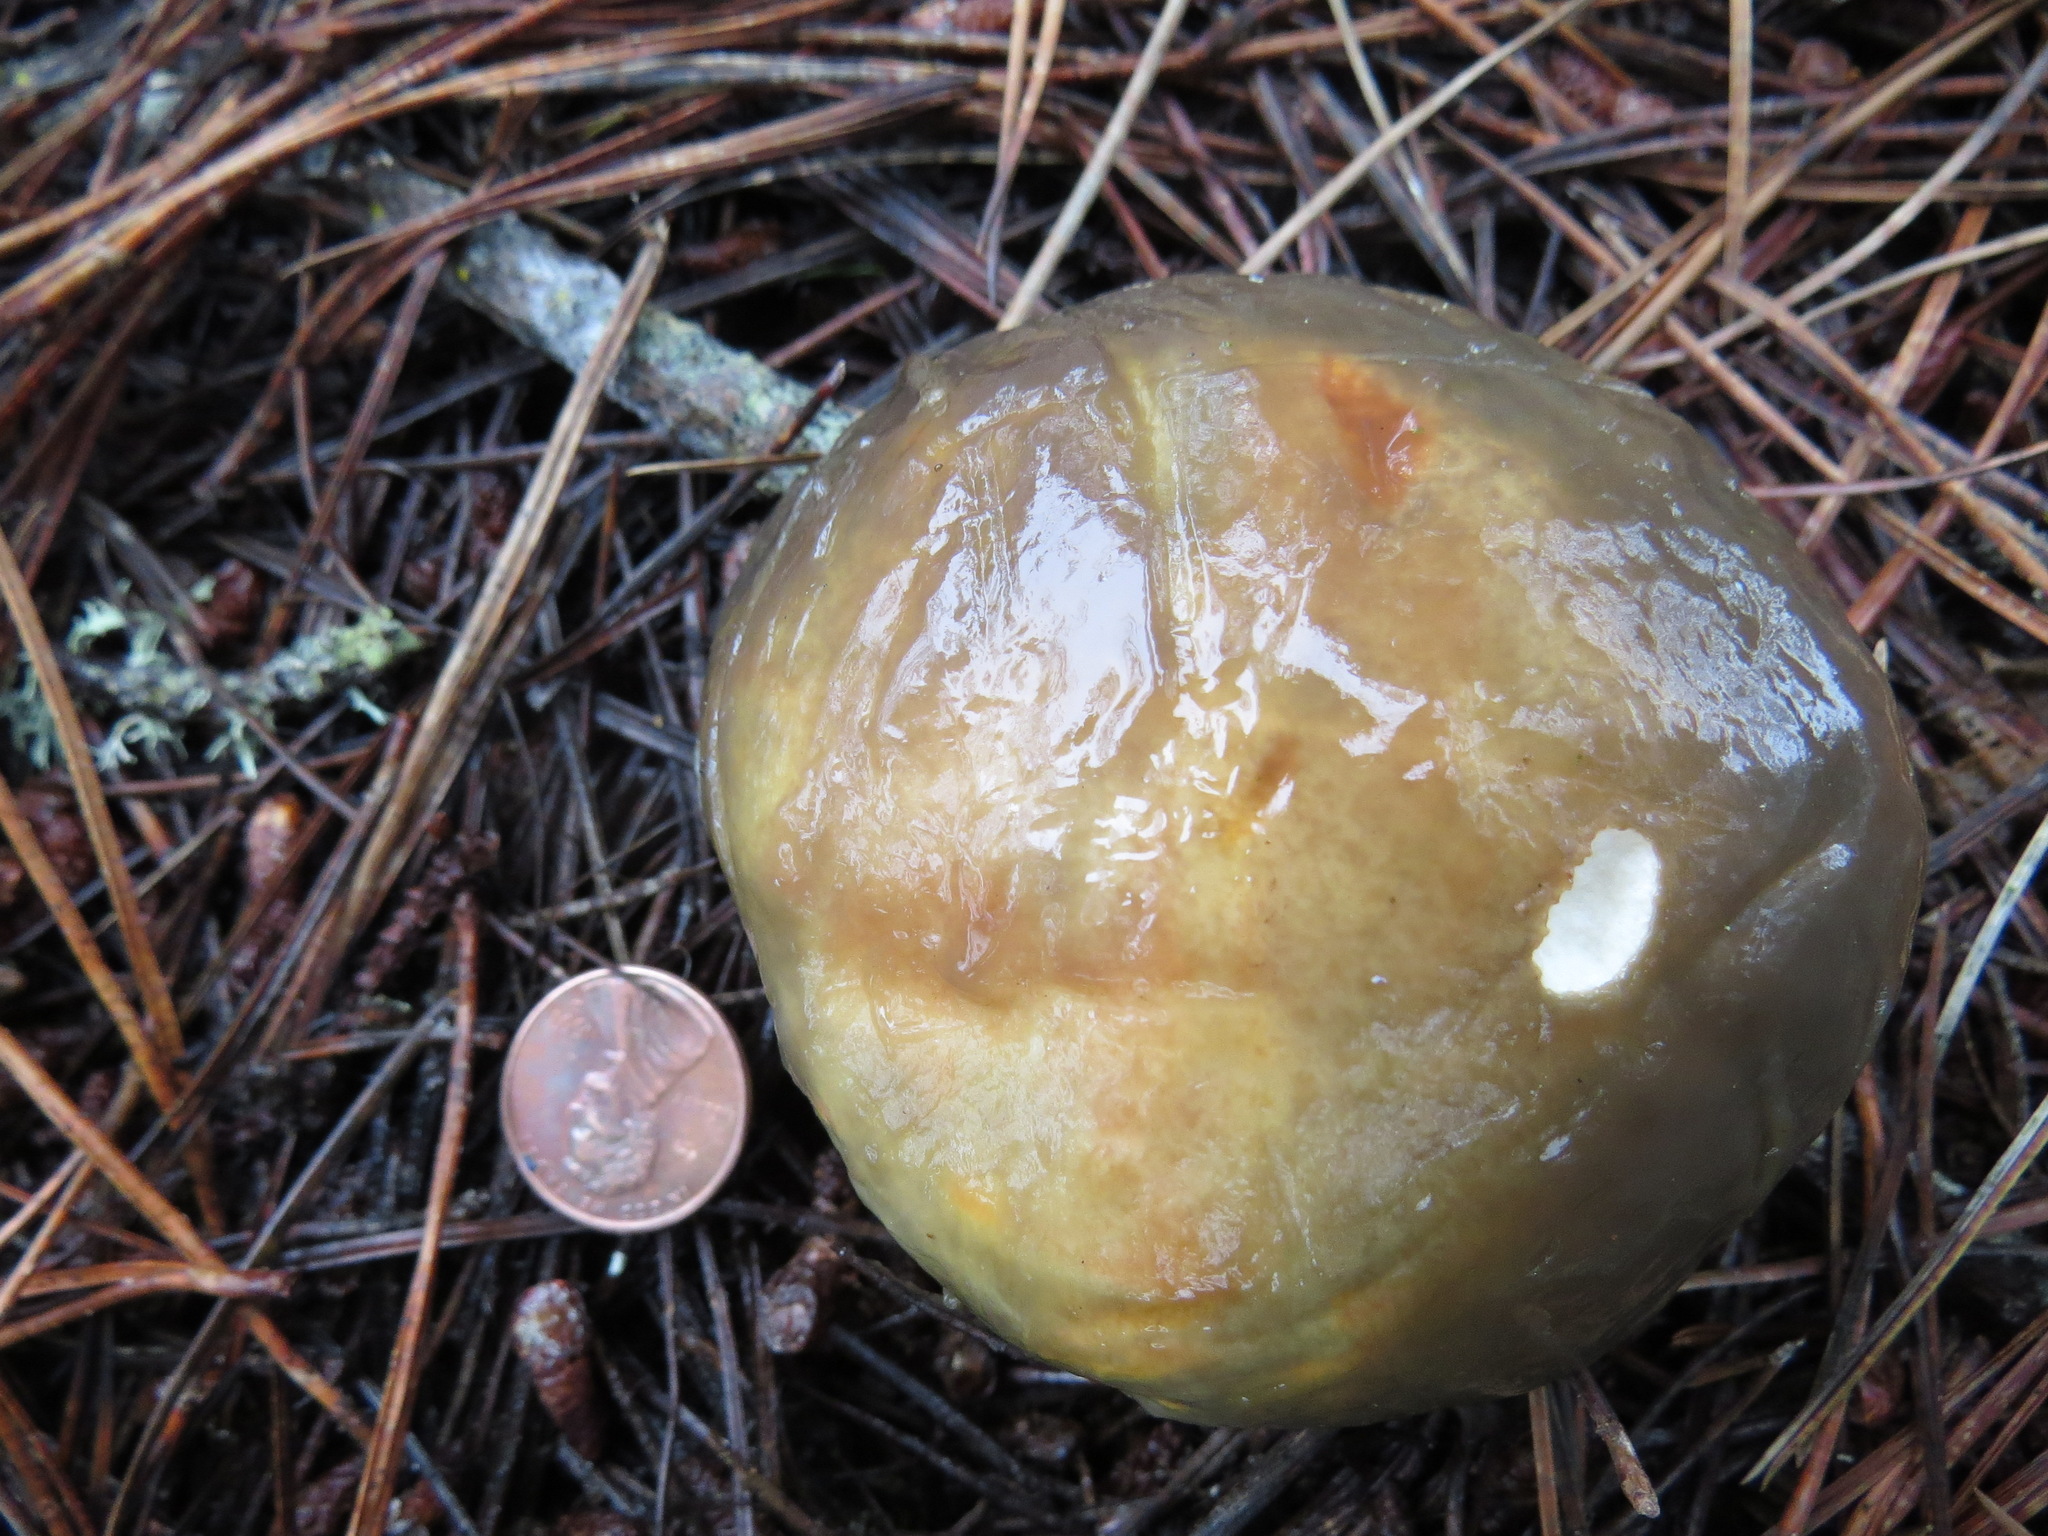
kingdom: Fungi
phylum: Basidiomycota
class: Agaricomycetes
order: Boletales
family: Suillaceae
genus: Suillus
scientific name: Suillus pungens
